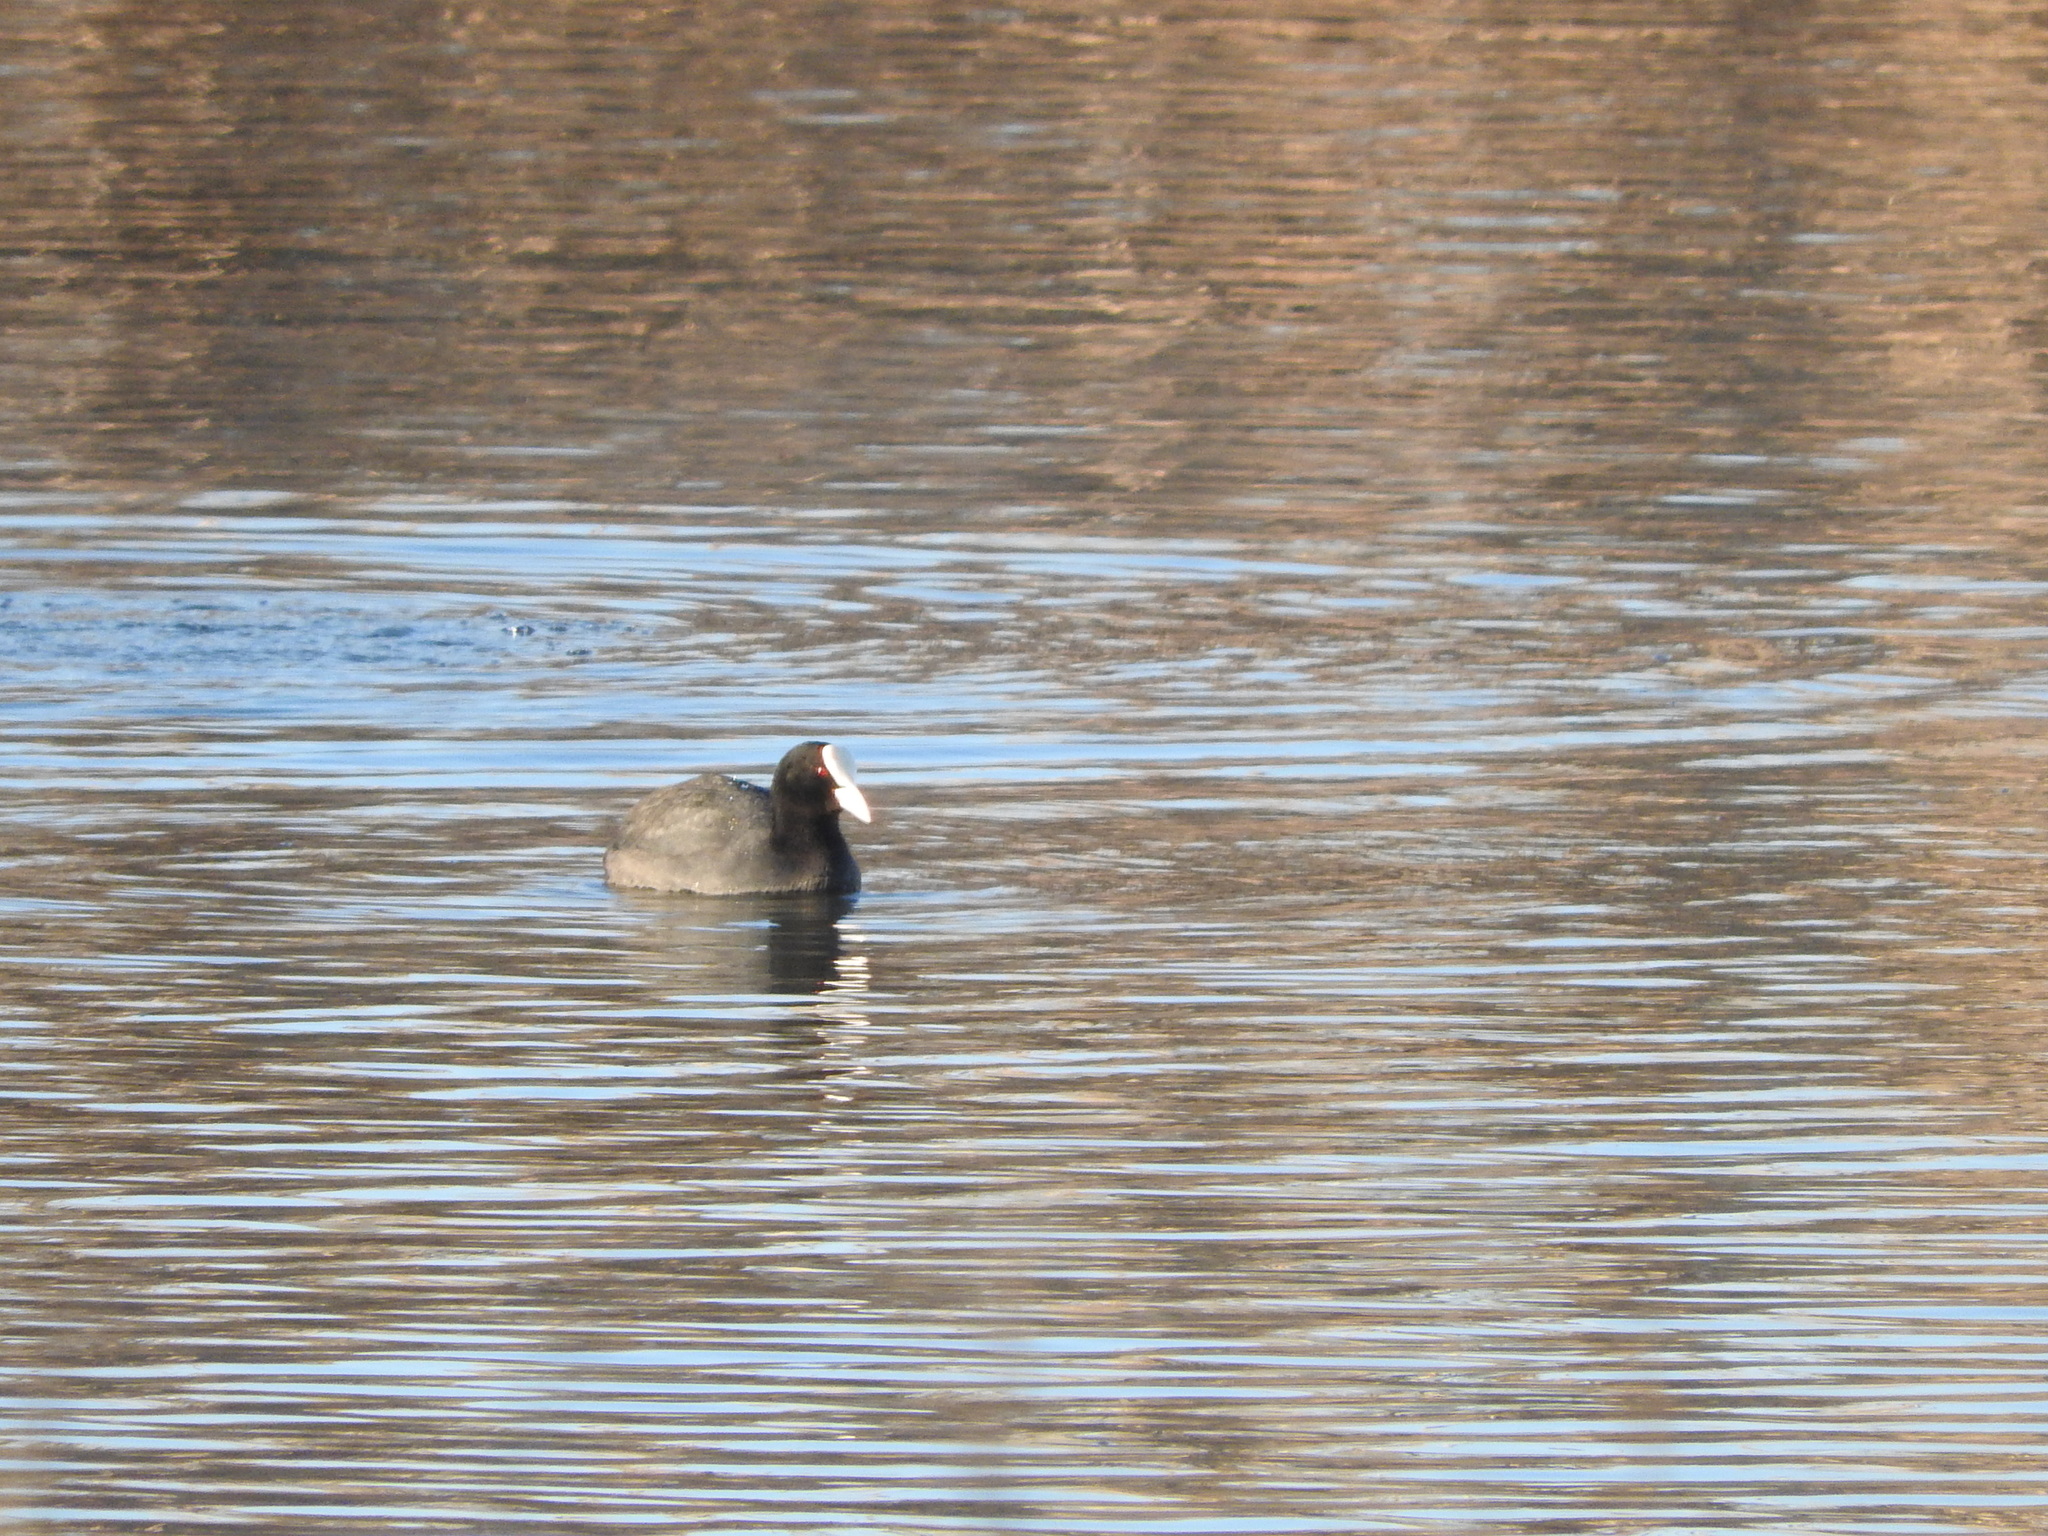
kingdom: Animalia
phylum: Chordata
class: Aves
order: Gruiformes
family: Rallidae
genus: Fulica
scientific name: Fulica atra
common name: Eurasian coot
